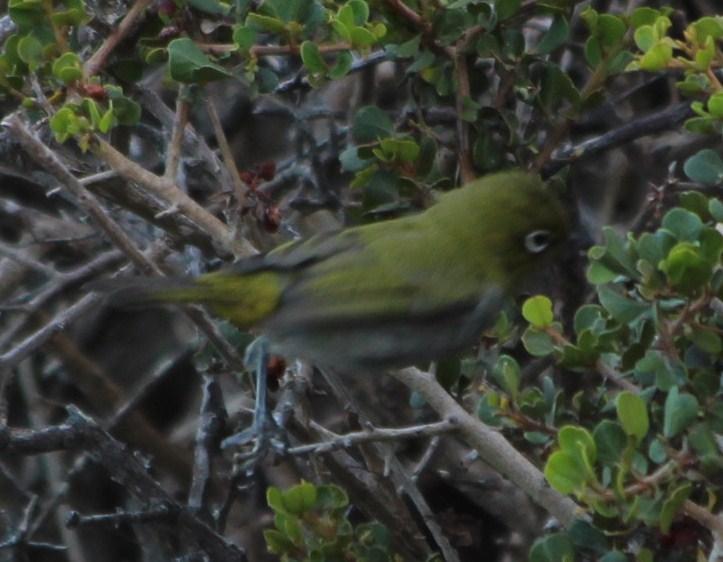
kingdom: Animalia
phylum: Chordata
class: Aves
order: Passeriformes
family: Zosteropidae
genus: Zosterops
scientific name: Zosterops virens
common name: Cape white-eye
